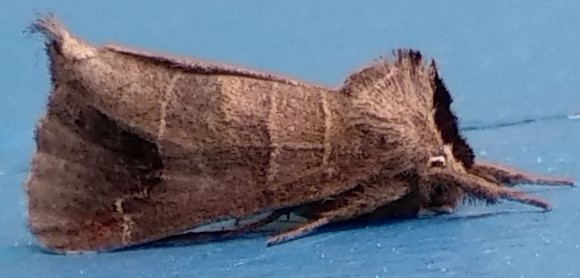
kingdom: Animalia
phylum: Arthropoda
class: Insecta
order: Lepidoptera
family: Notodontidae
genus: Clostera
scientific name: Clostera albosigma
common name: Sigmoid prominent
